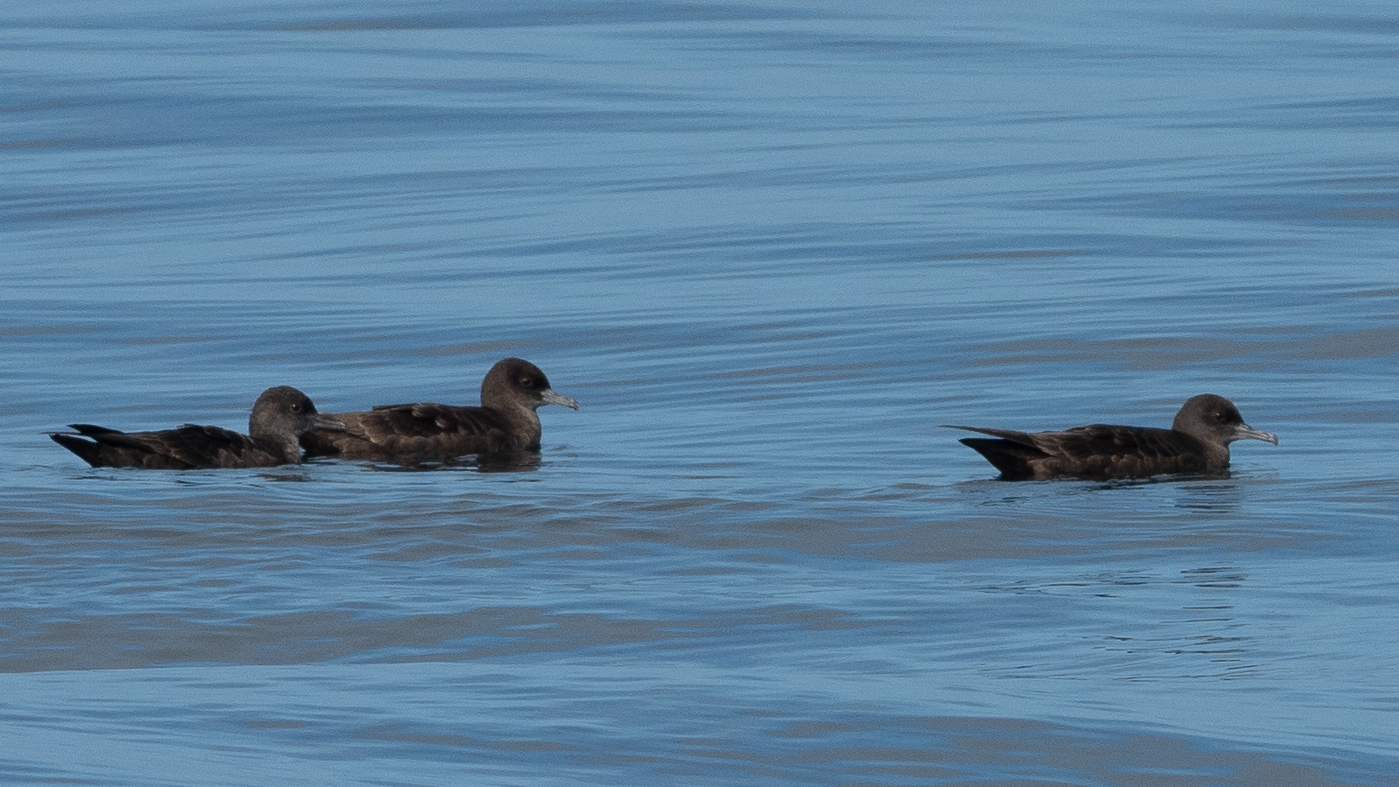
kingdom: Animalia
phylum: Chordata
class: Aves
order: Procellariiformes
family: Procellariidae
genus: Puffinus
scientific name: Puffinus griseus
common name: Sooty shearwater
